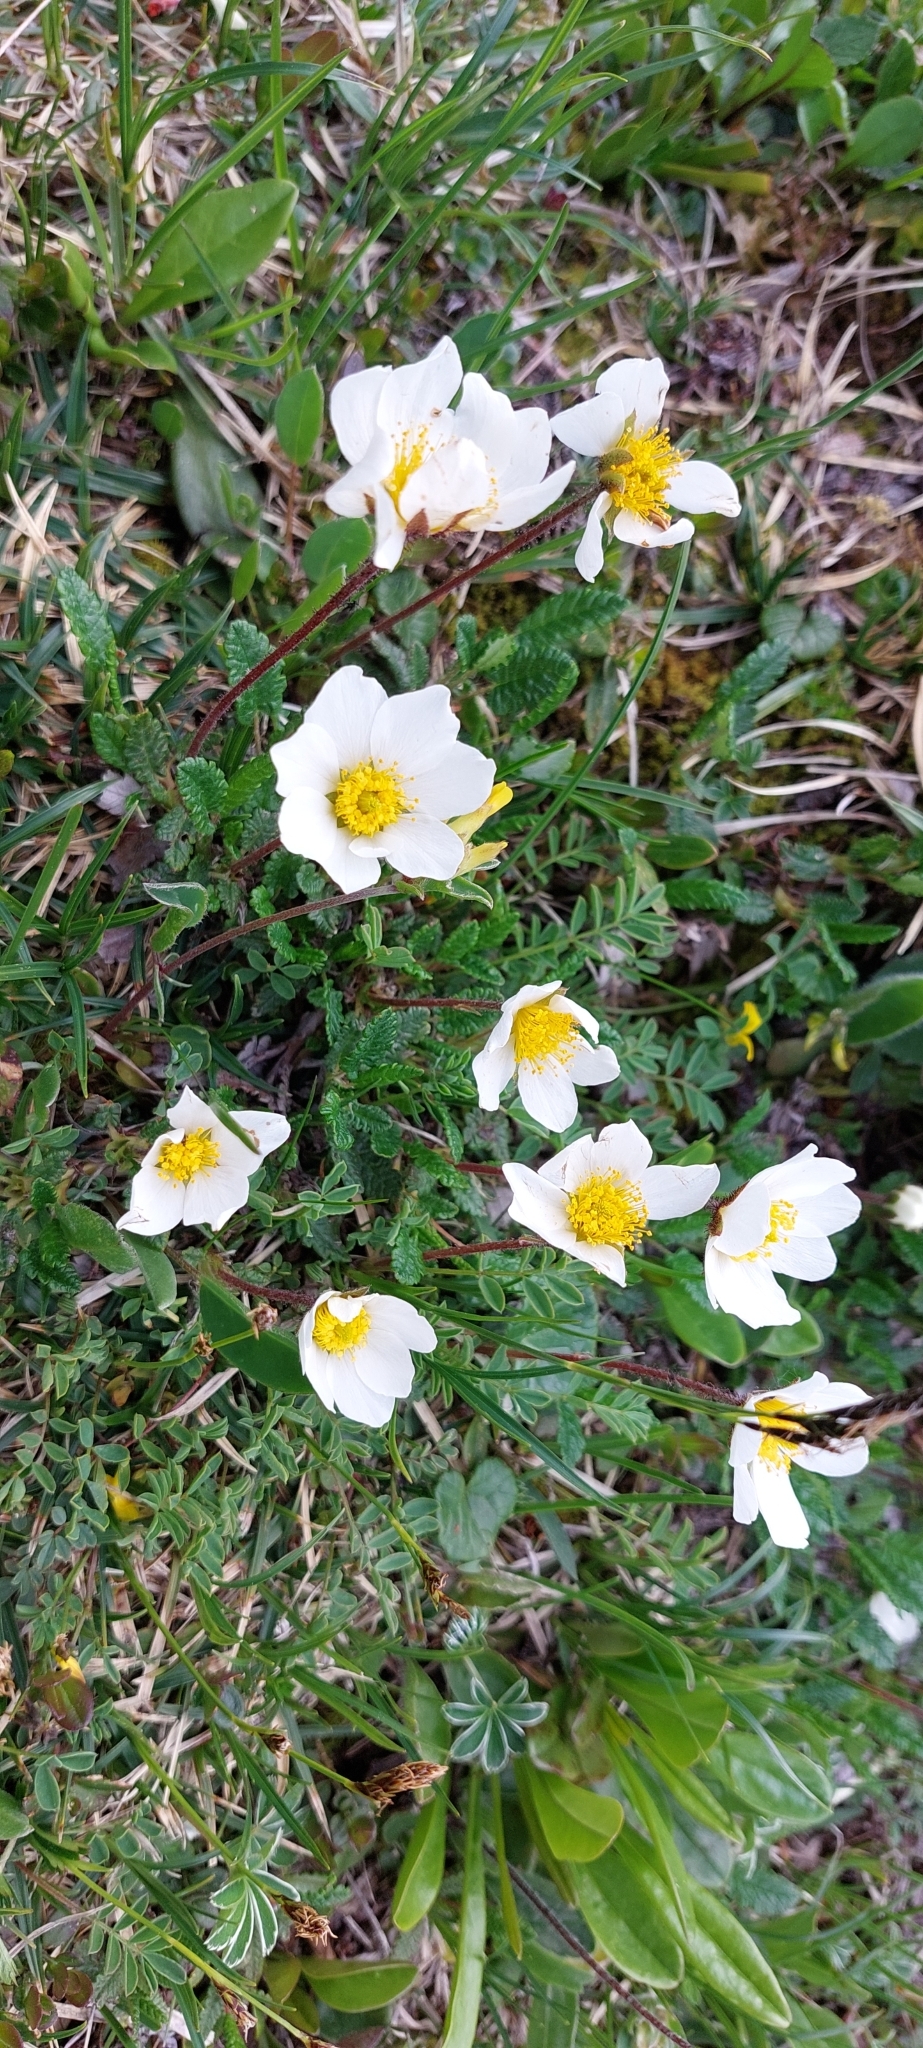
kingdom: Plantae
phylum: Tracheophyta
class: Magnoliopsida
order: Rosales
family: Rosaceae
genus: Dryas
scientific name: Dryas octopetala
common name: Eight-petal mountain-avens
